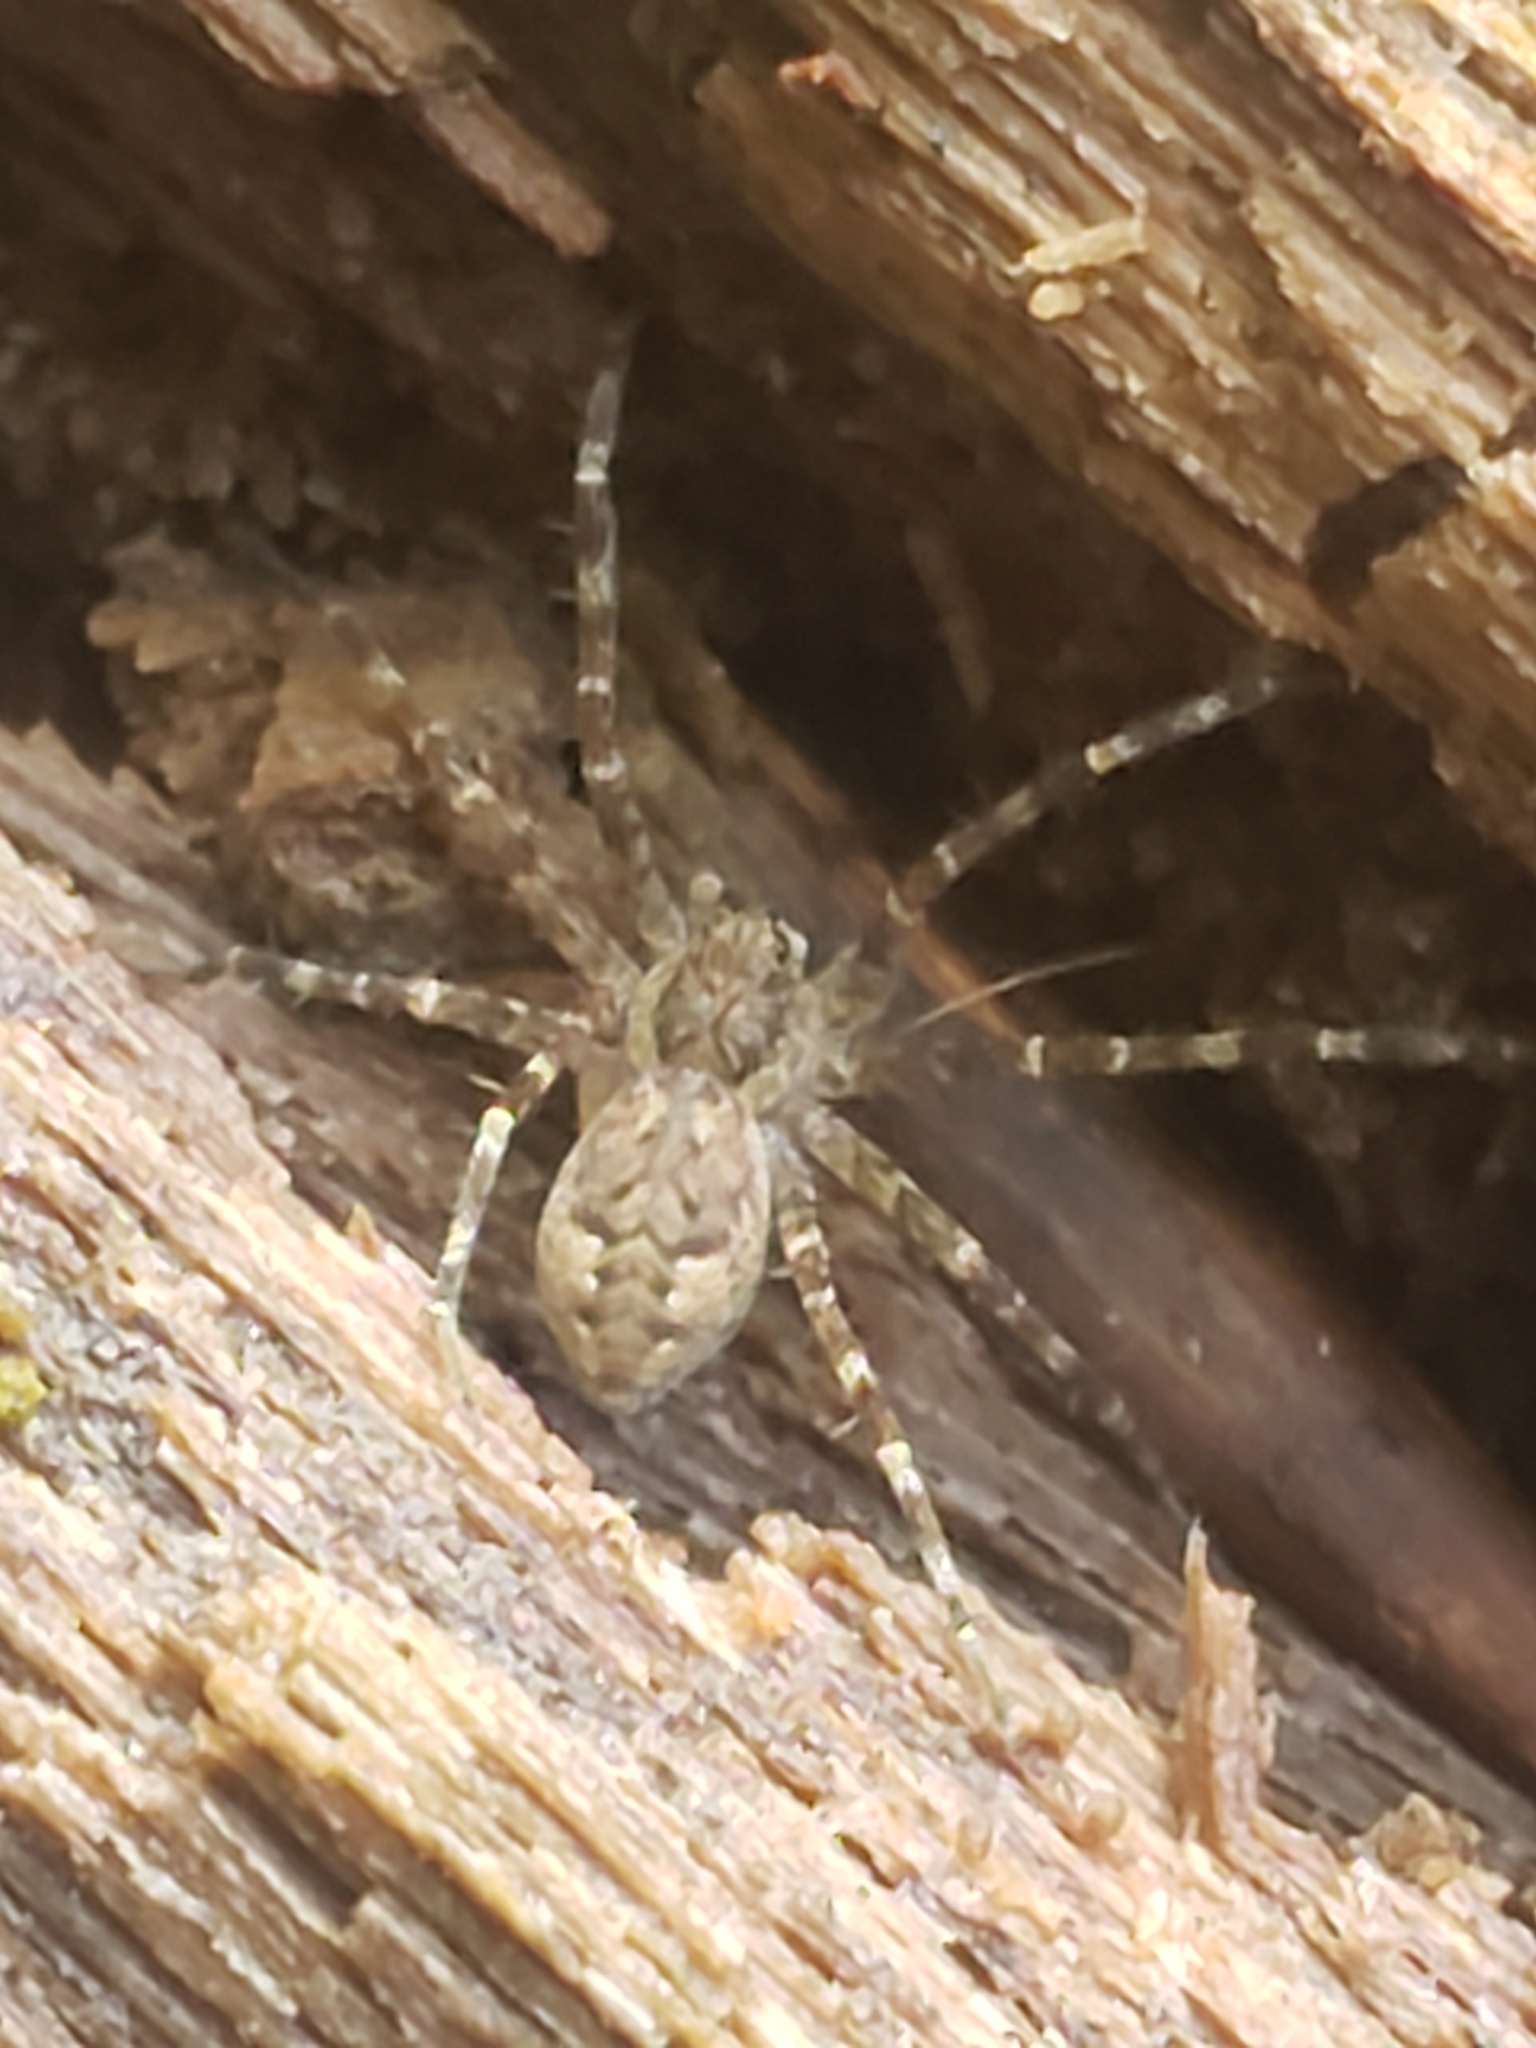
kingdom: Animalia
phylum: Arthropoda
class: Arachnida
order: Araneae
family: Pisauridae
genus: Dolomedes
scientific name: Dolomedes tenebrosus
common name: Dark fishing spider
